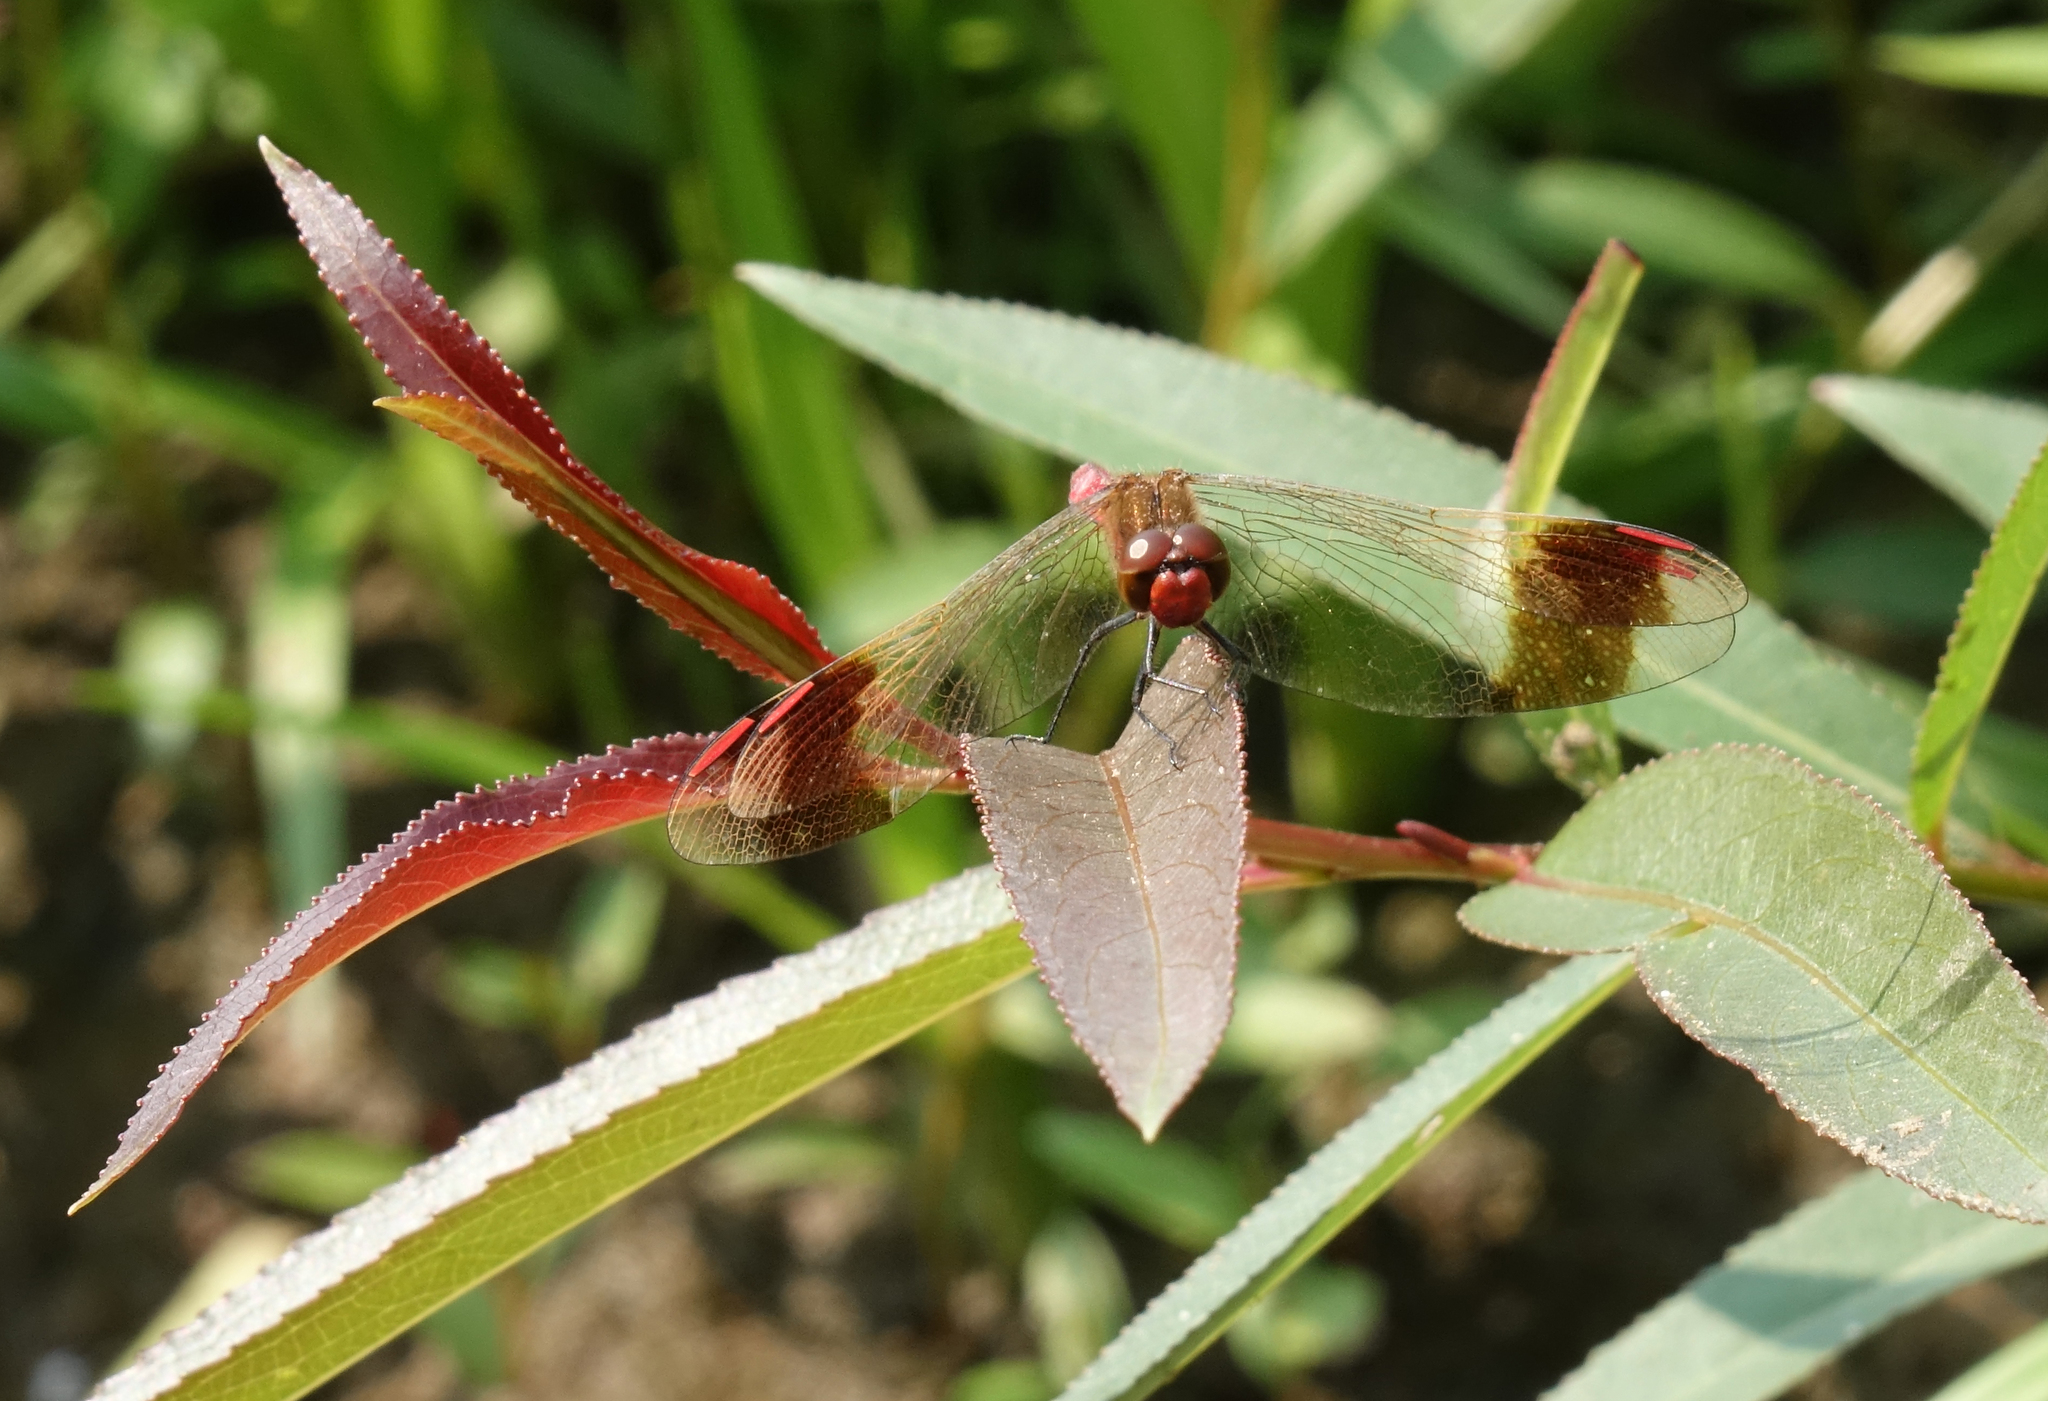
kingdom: Animalia
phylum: Arthropoda
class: Insecta
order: Odonata
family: Libellulidae
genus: Sympetrum
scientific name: Sympetrum pedemontanum
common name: Banded darter
